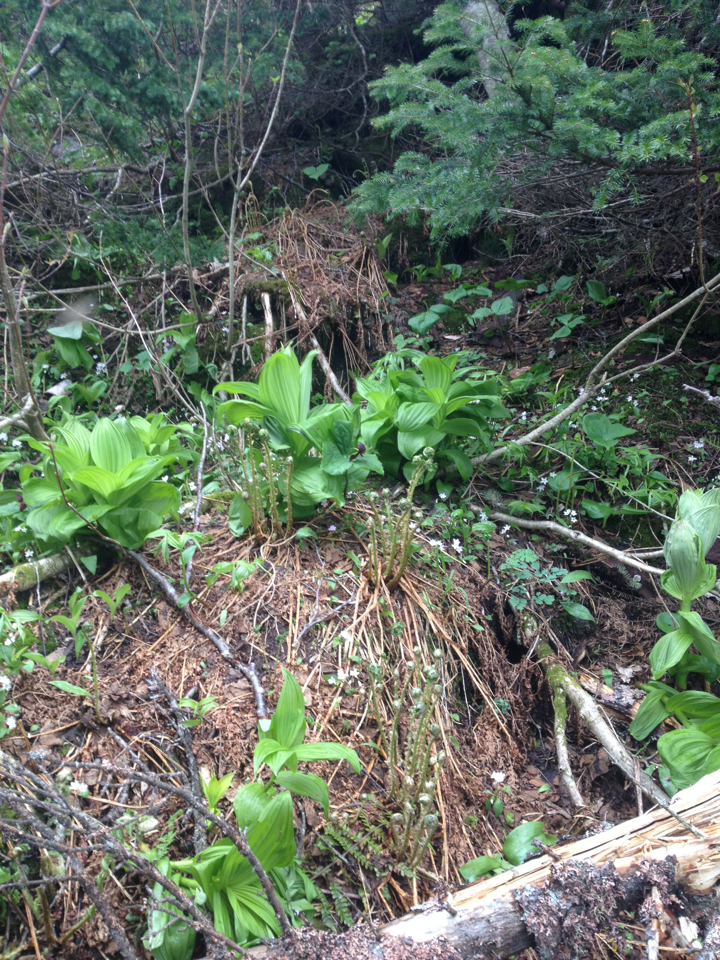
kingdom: Plantae
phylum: Tracheophyta
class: Liliopsida
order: Liliales
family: Melanthiaceae
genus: Veratrum
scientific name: Veratrum viride
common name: American false hellebore
